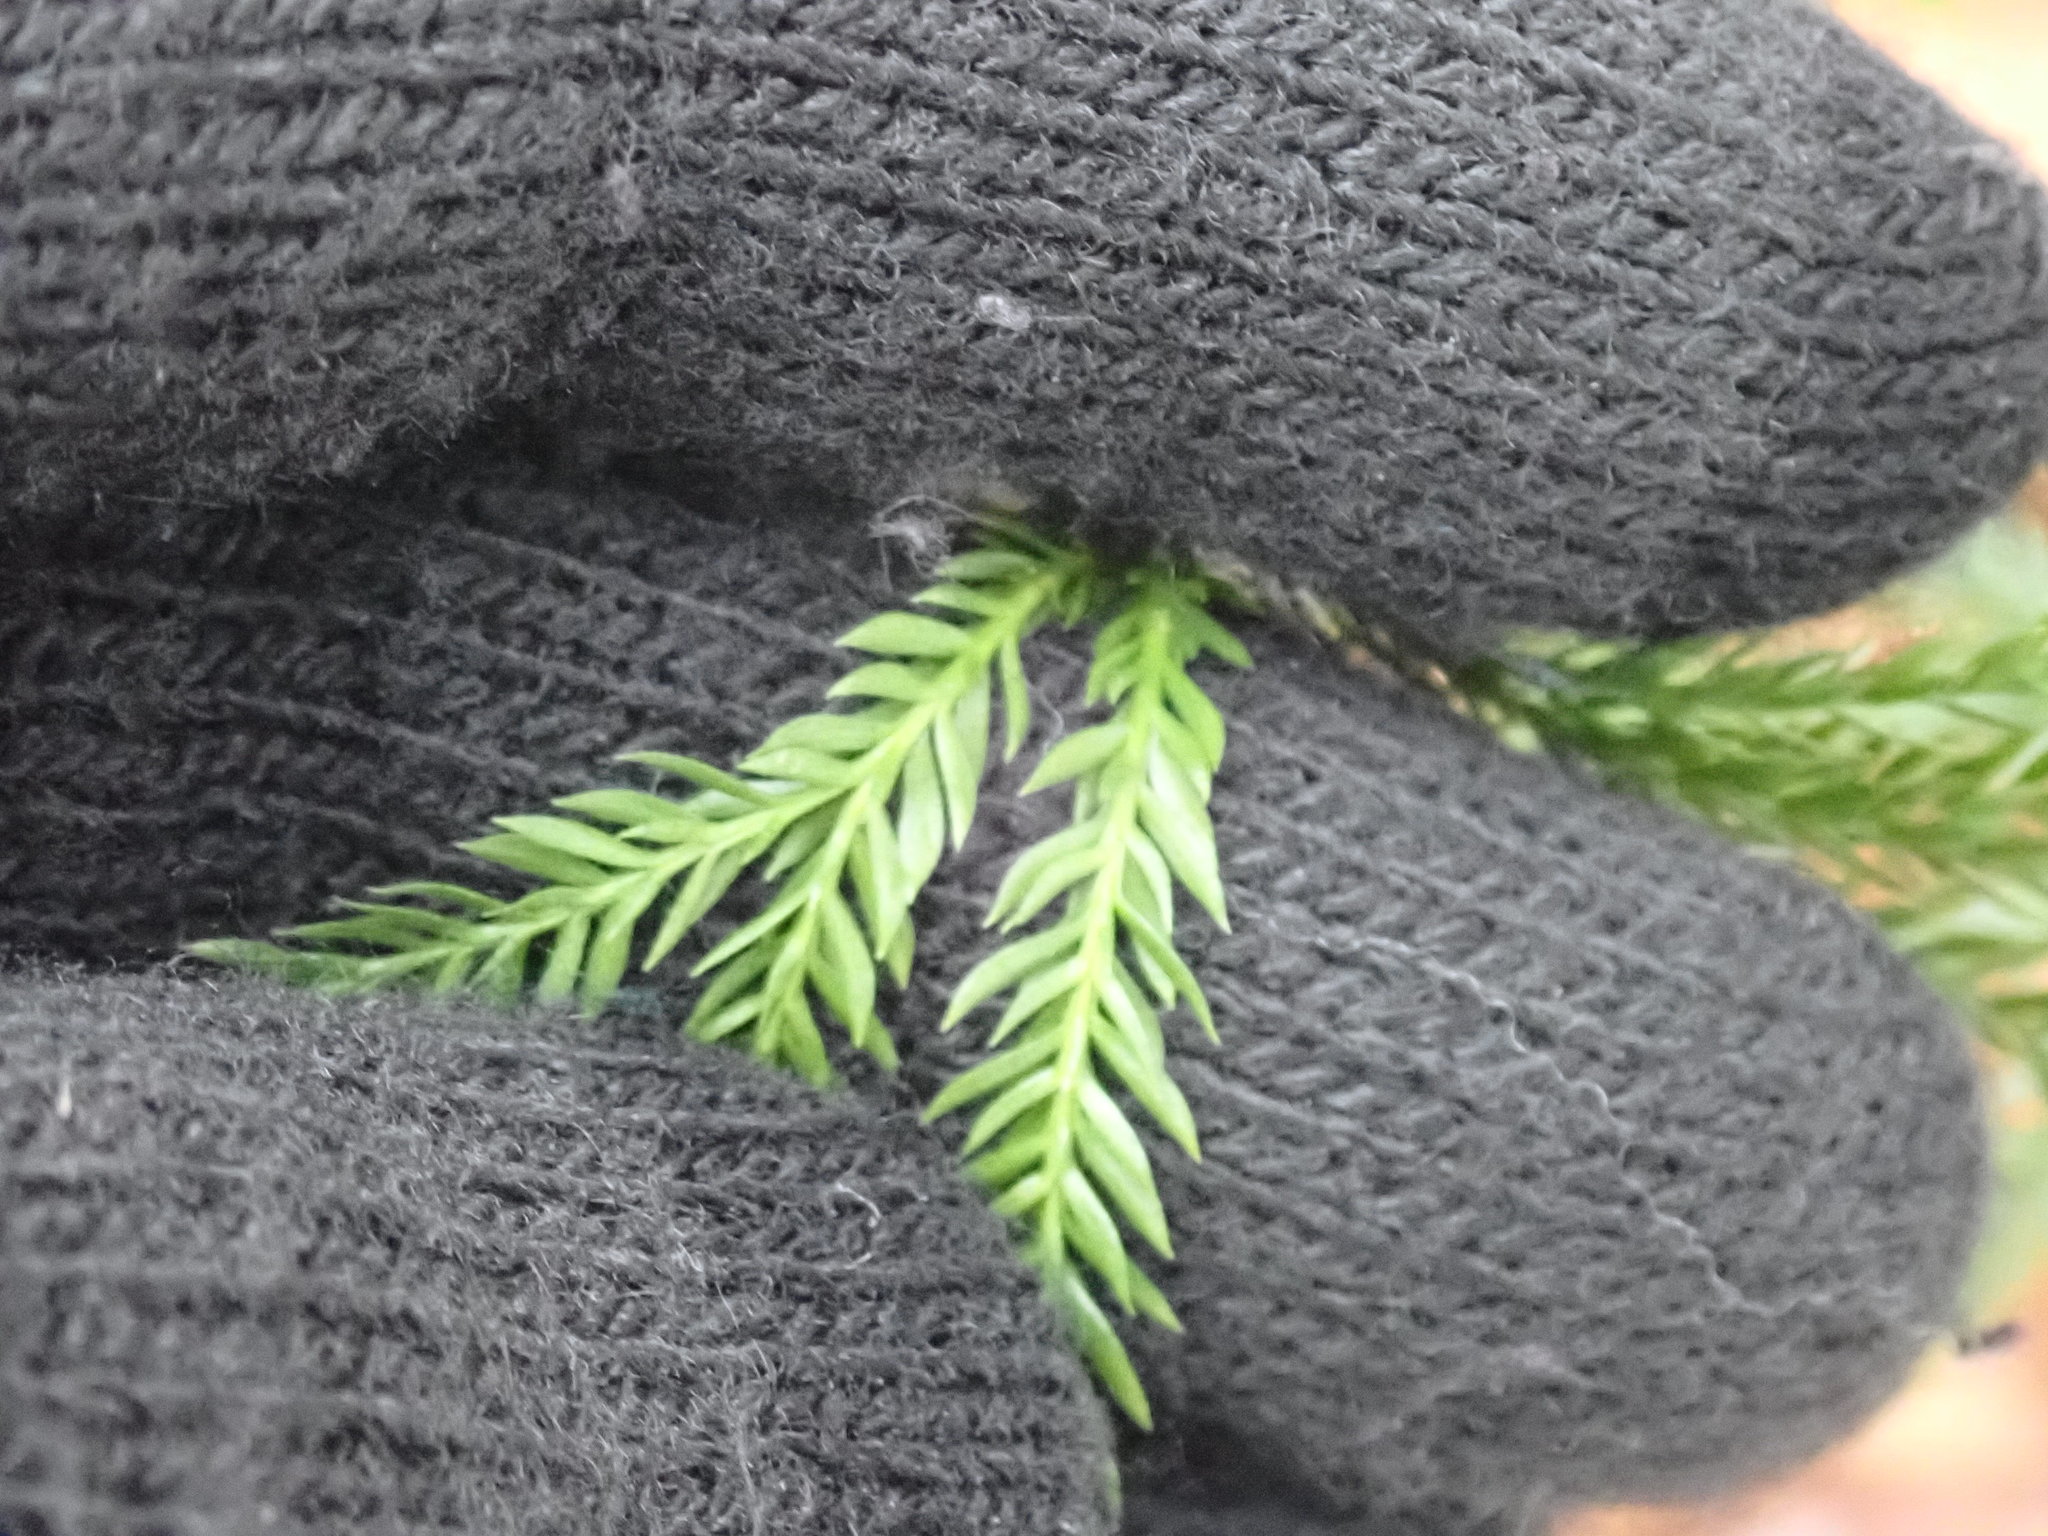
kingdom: Plantae
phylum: Tracheophyta
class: Lycopodiopsida
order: Lycopodiales
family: Lycopodiaceae
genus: Dendrolycopodium
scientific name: Dendrolycopodium obscurum
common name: Common ground-pine
